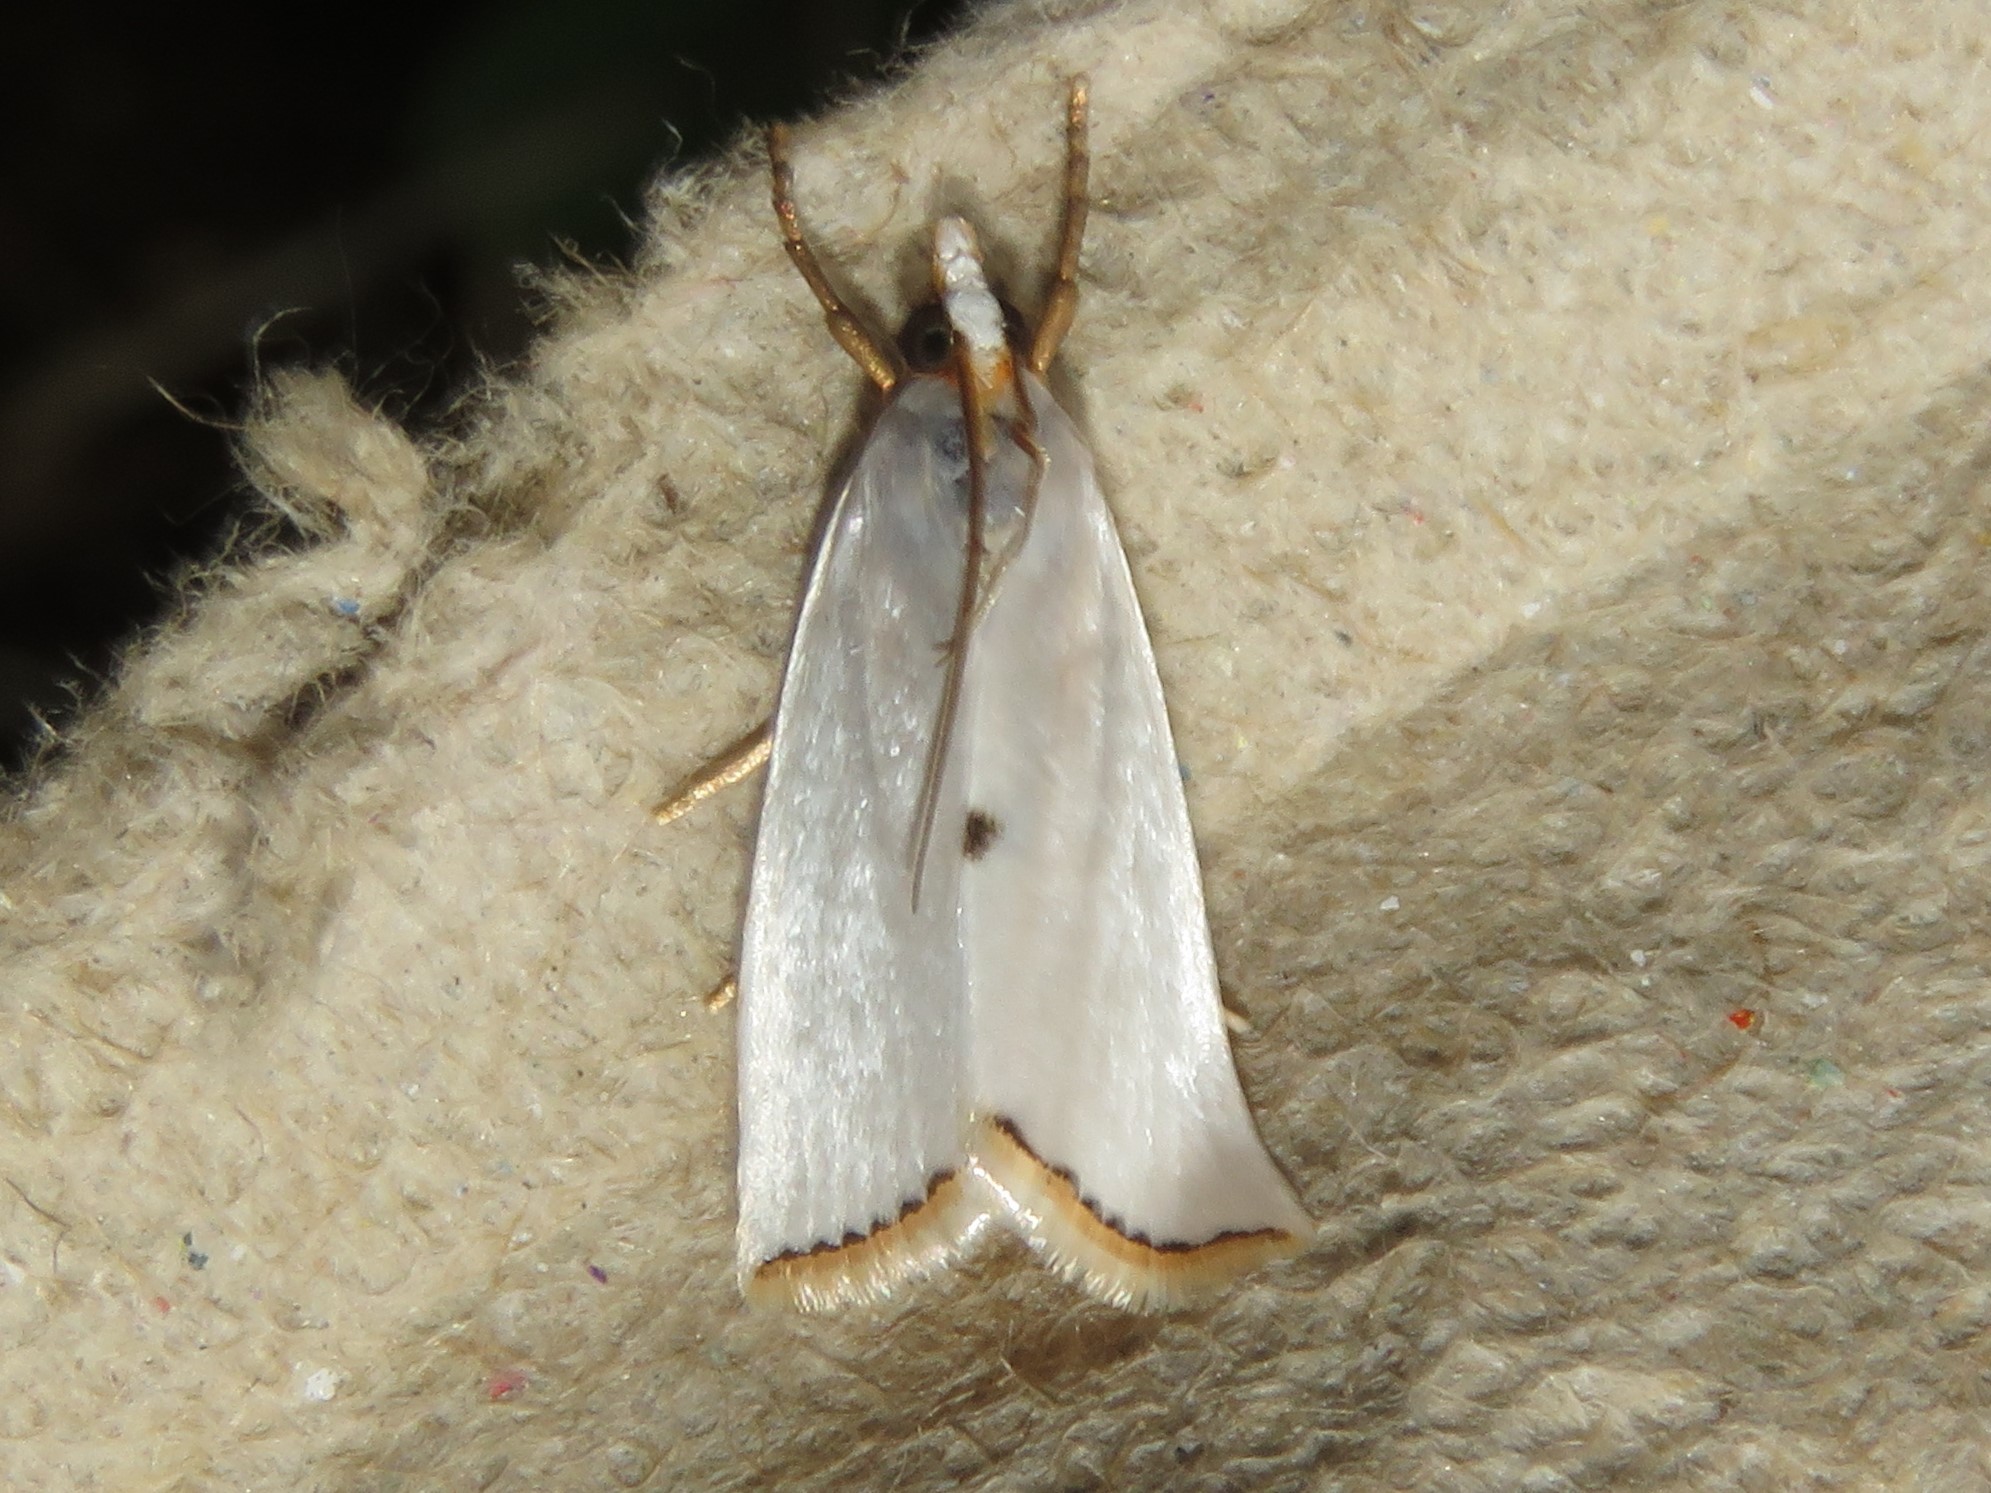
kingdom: Animalia
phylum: Arthropoda
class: Insecta
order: Lepidoptera
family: Crambidae
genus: Argyria
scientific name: Argyria nivalis
